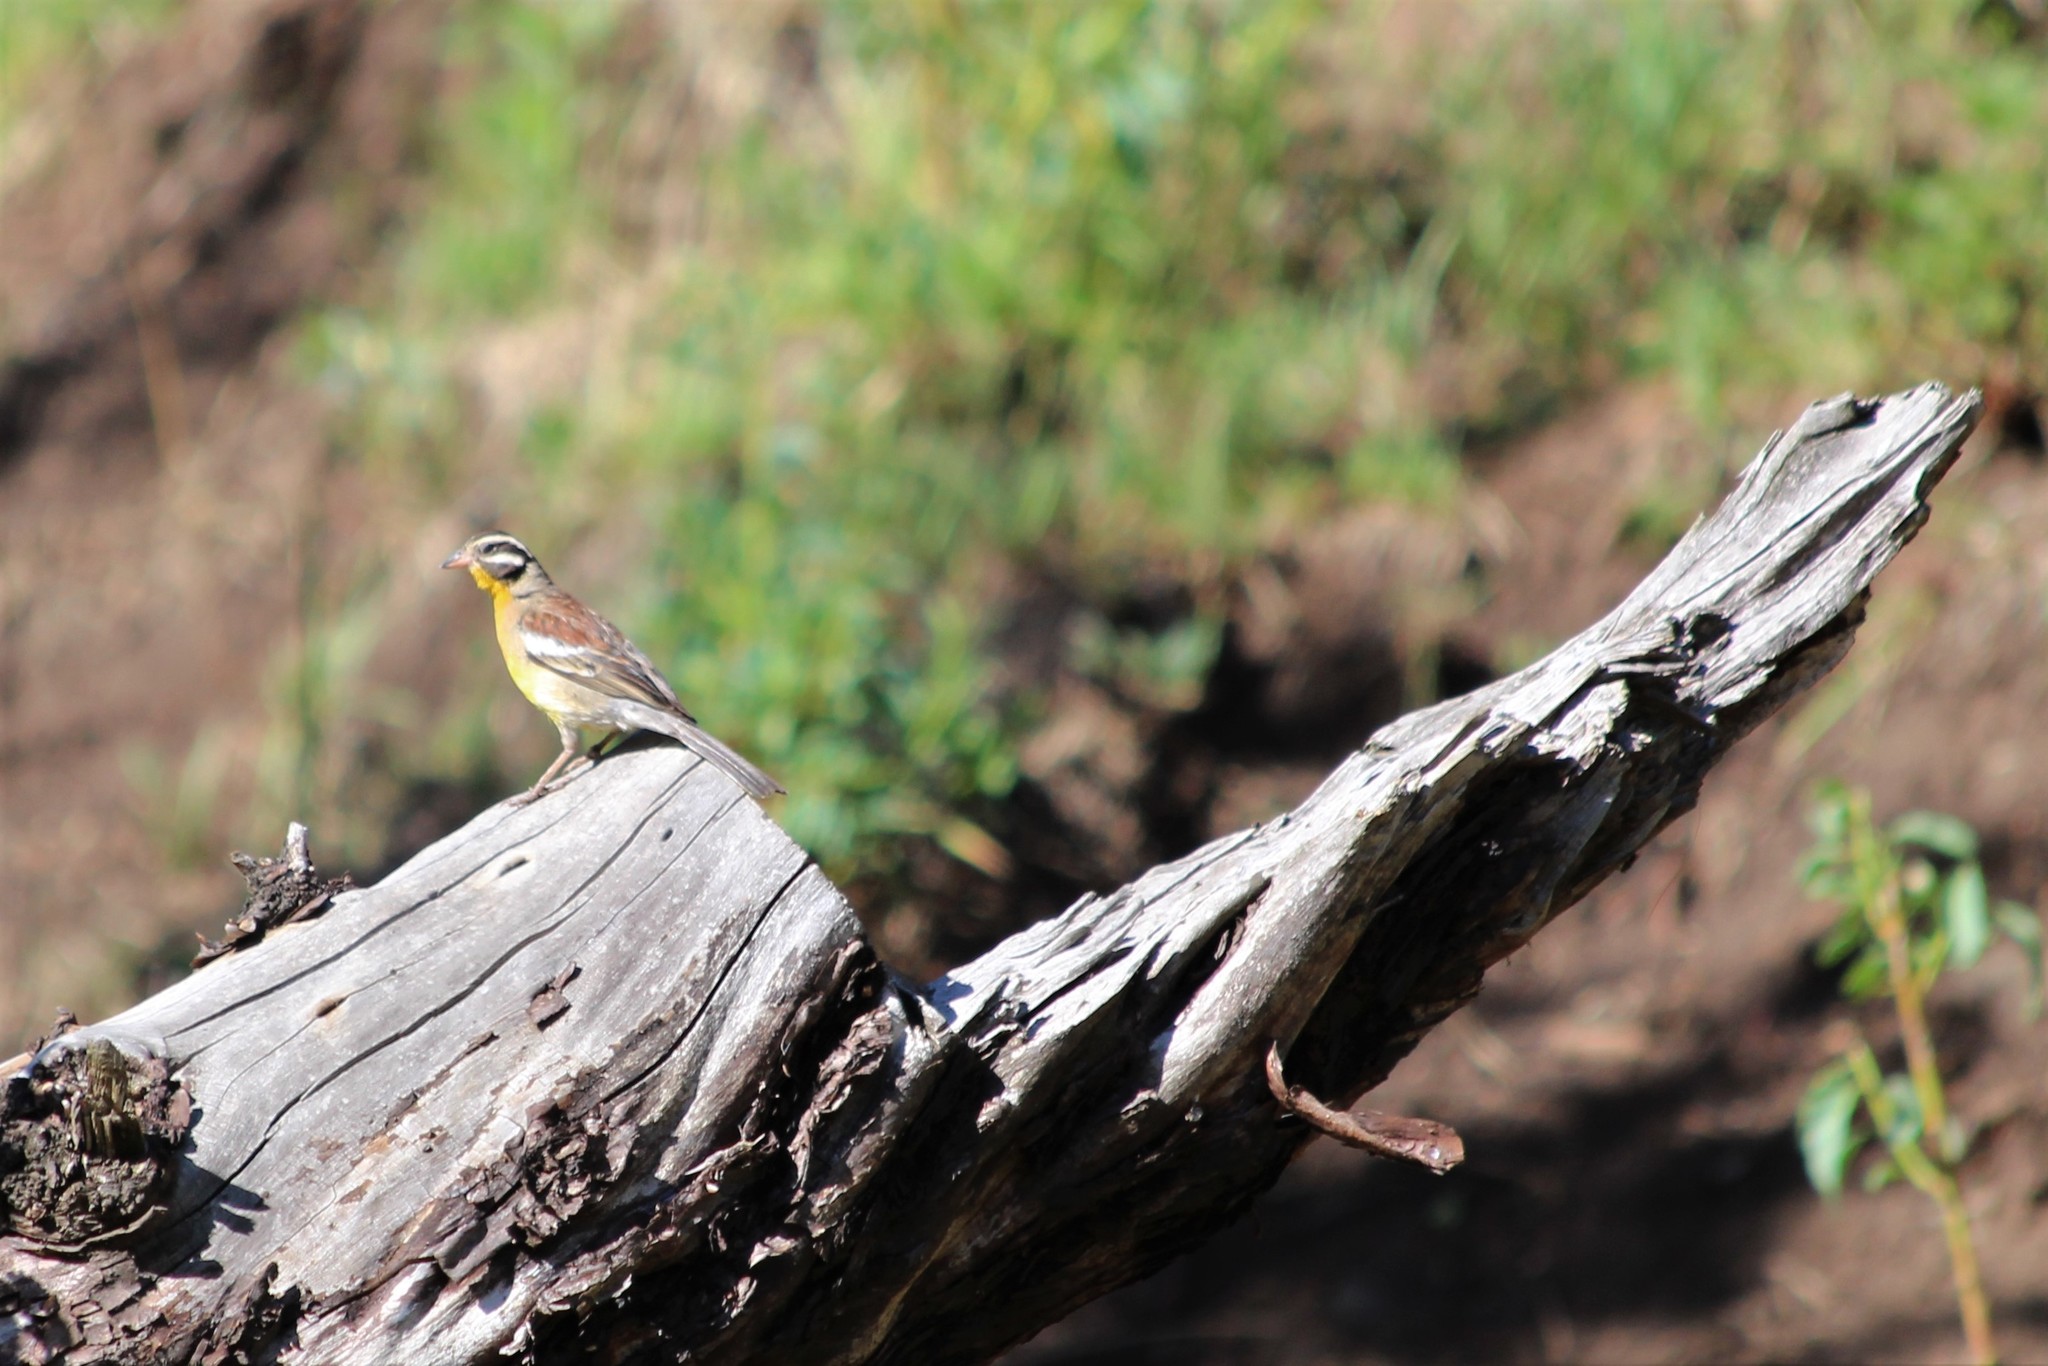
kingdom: Animalia
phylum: Chordata
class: Aves
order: Passeriformes
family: Emberizidae
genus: Emberiza
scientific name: Emberiza flaviventris
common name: Golden-breasted bunting
